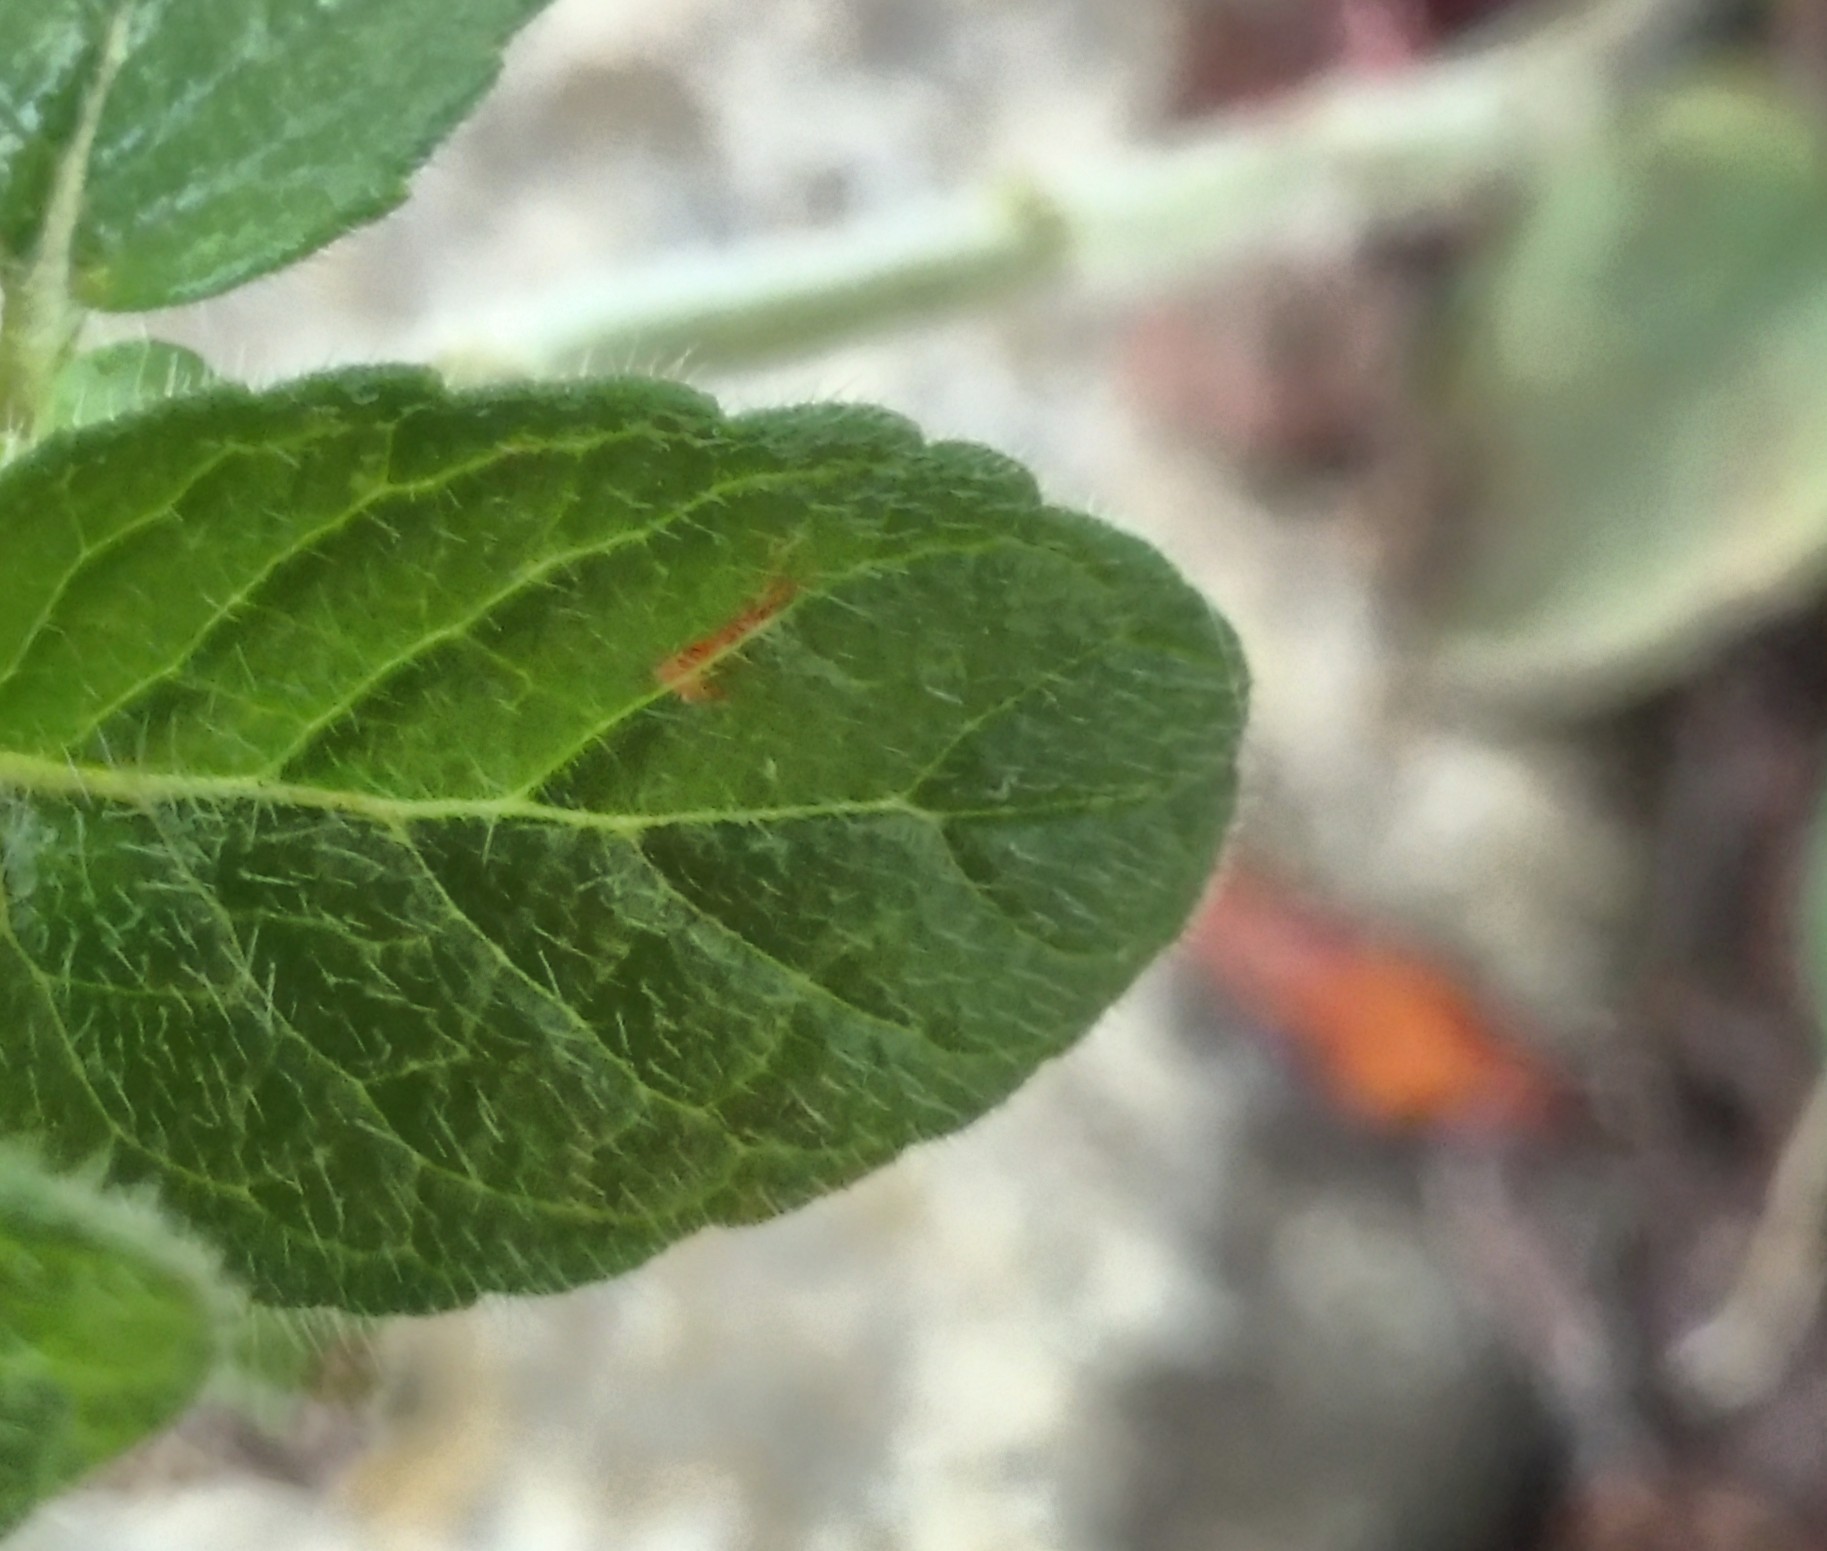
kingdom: Plantae
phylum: Tracheophyta
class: Magnoliopsida
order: Lamiales
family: Lamiaceae
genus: Clinopodium
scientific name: Clinopodium vulgare
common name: Wild basil
